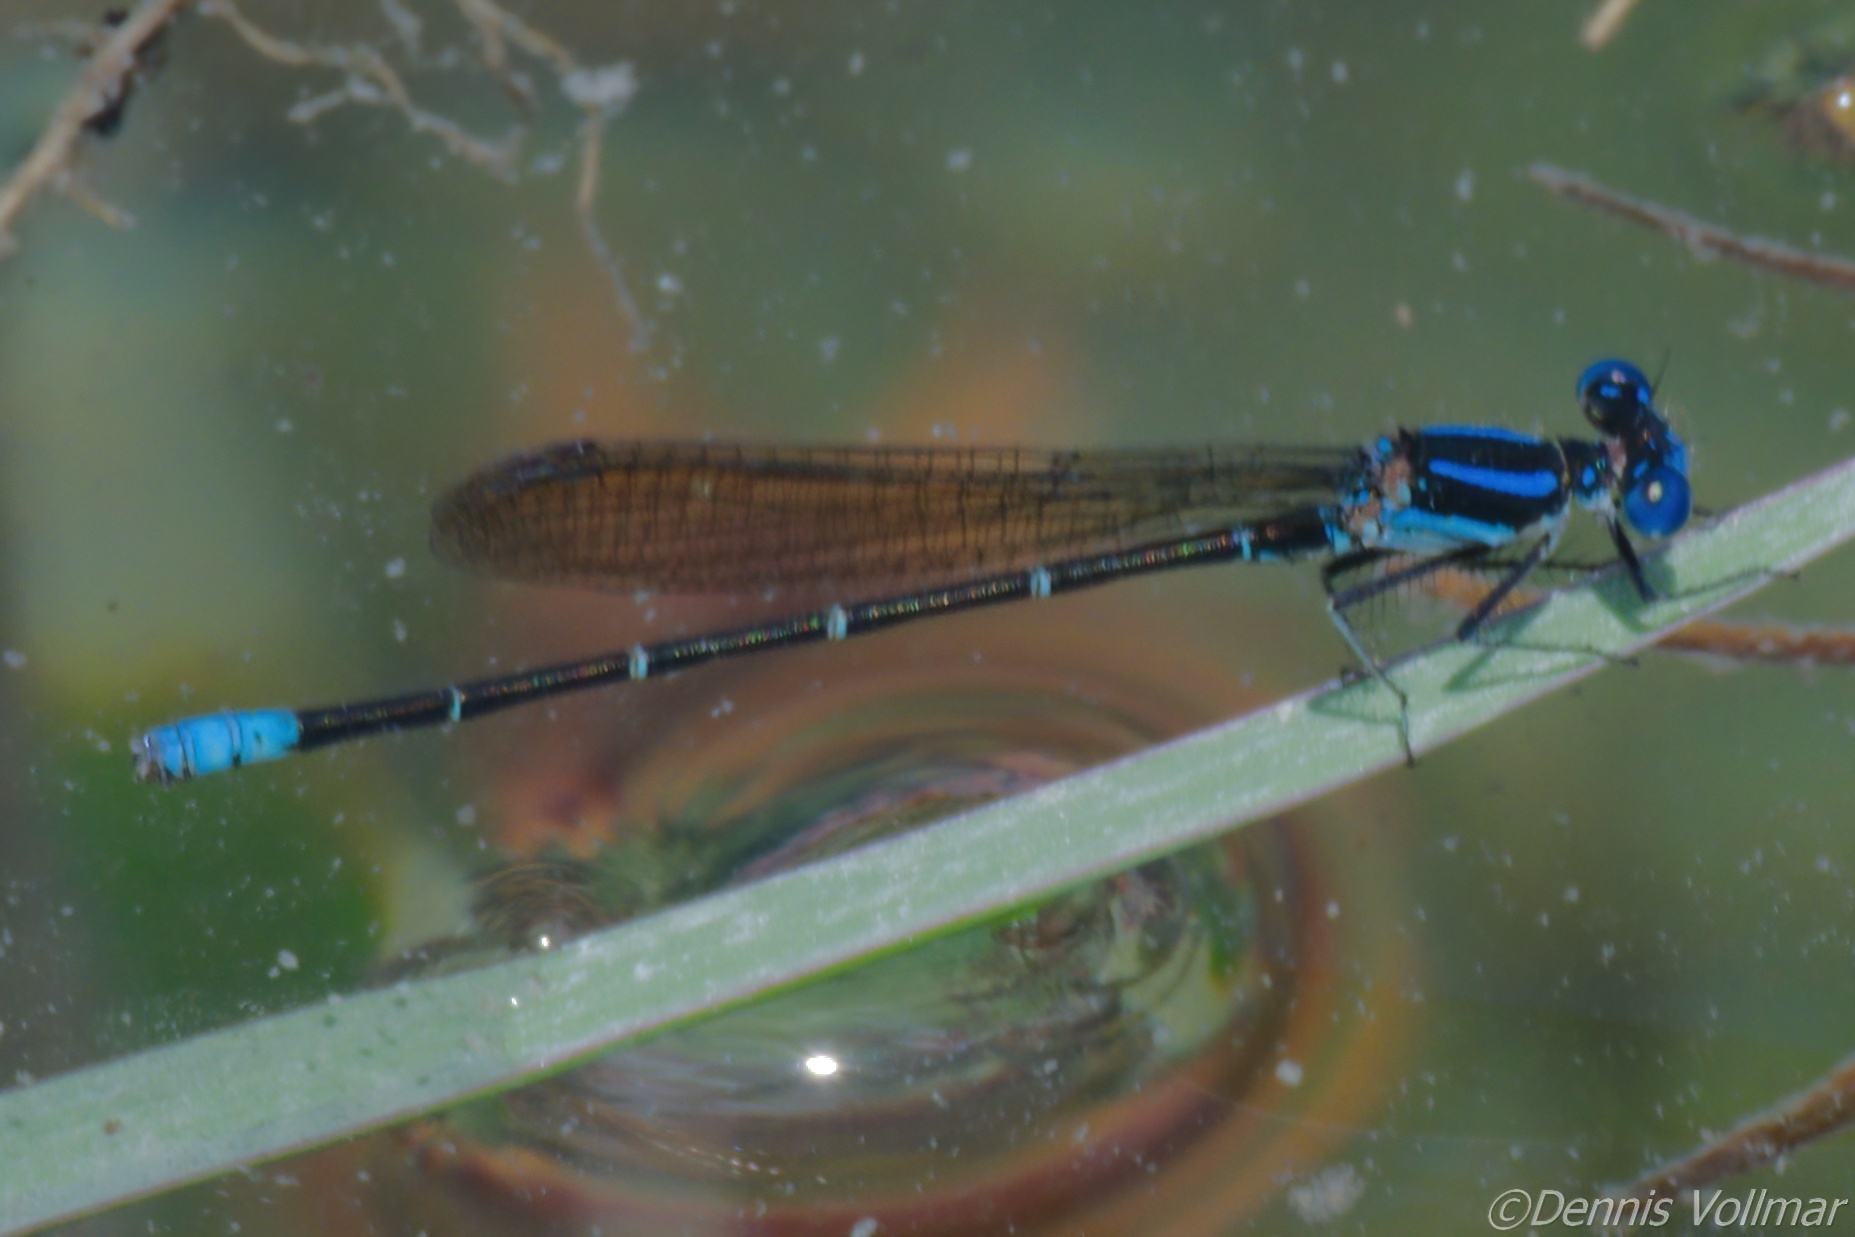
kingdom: Animalia
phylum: Arthropoda
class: Insecta
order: Odonata
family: Coenagrionidae
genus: Argia
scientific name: Argia sedula
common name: Blue-ringed dancer
